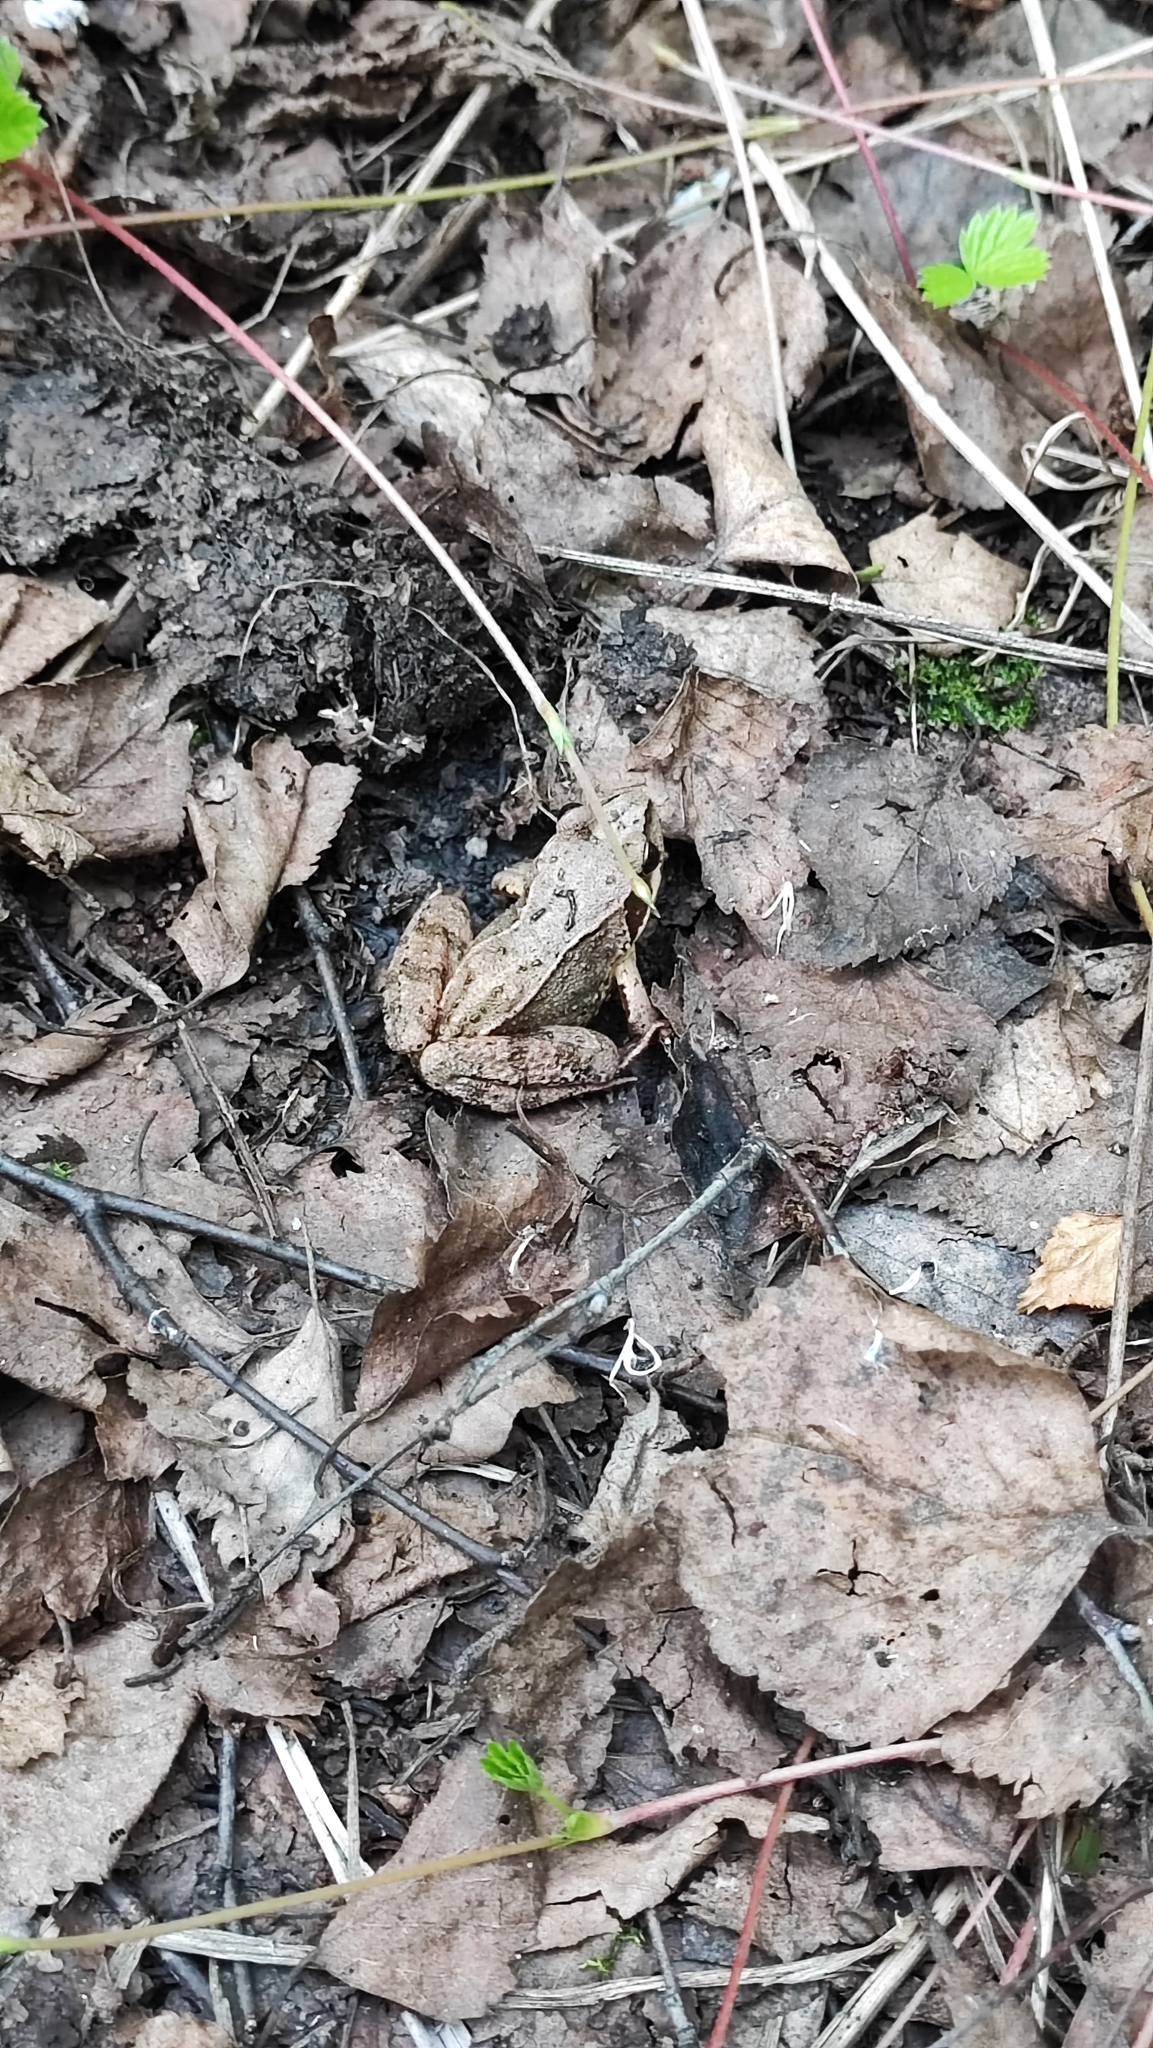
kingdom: Animalia
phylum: Chordata
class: Amphibia
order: Anura
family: Ranidae
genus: Rana
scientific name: Rana temporaria
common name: Common frog
